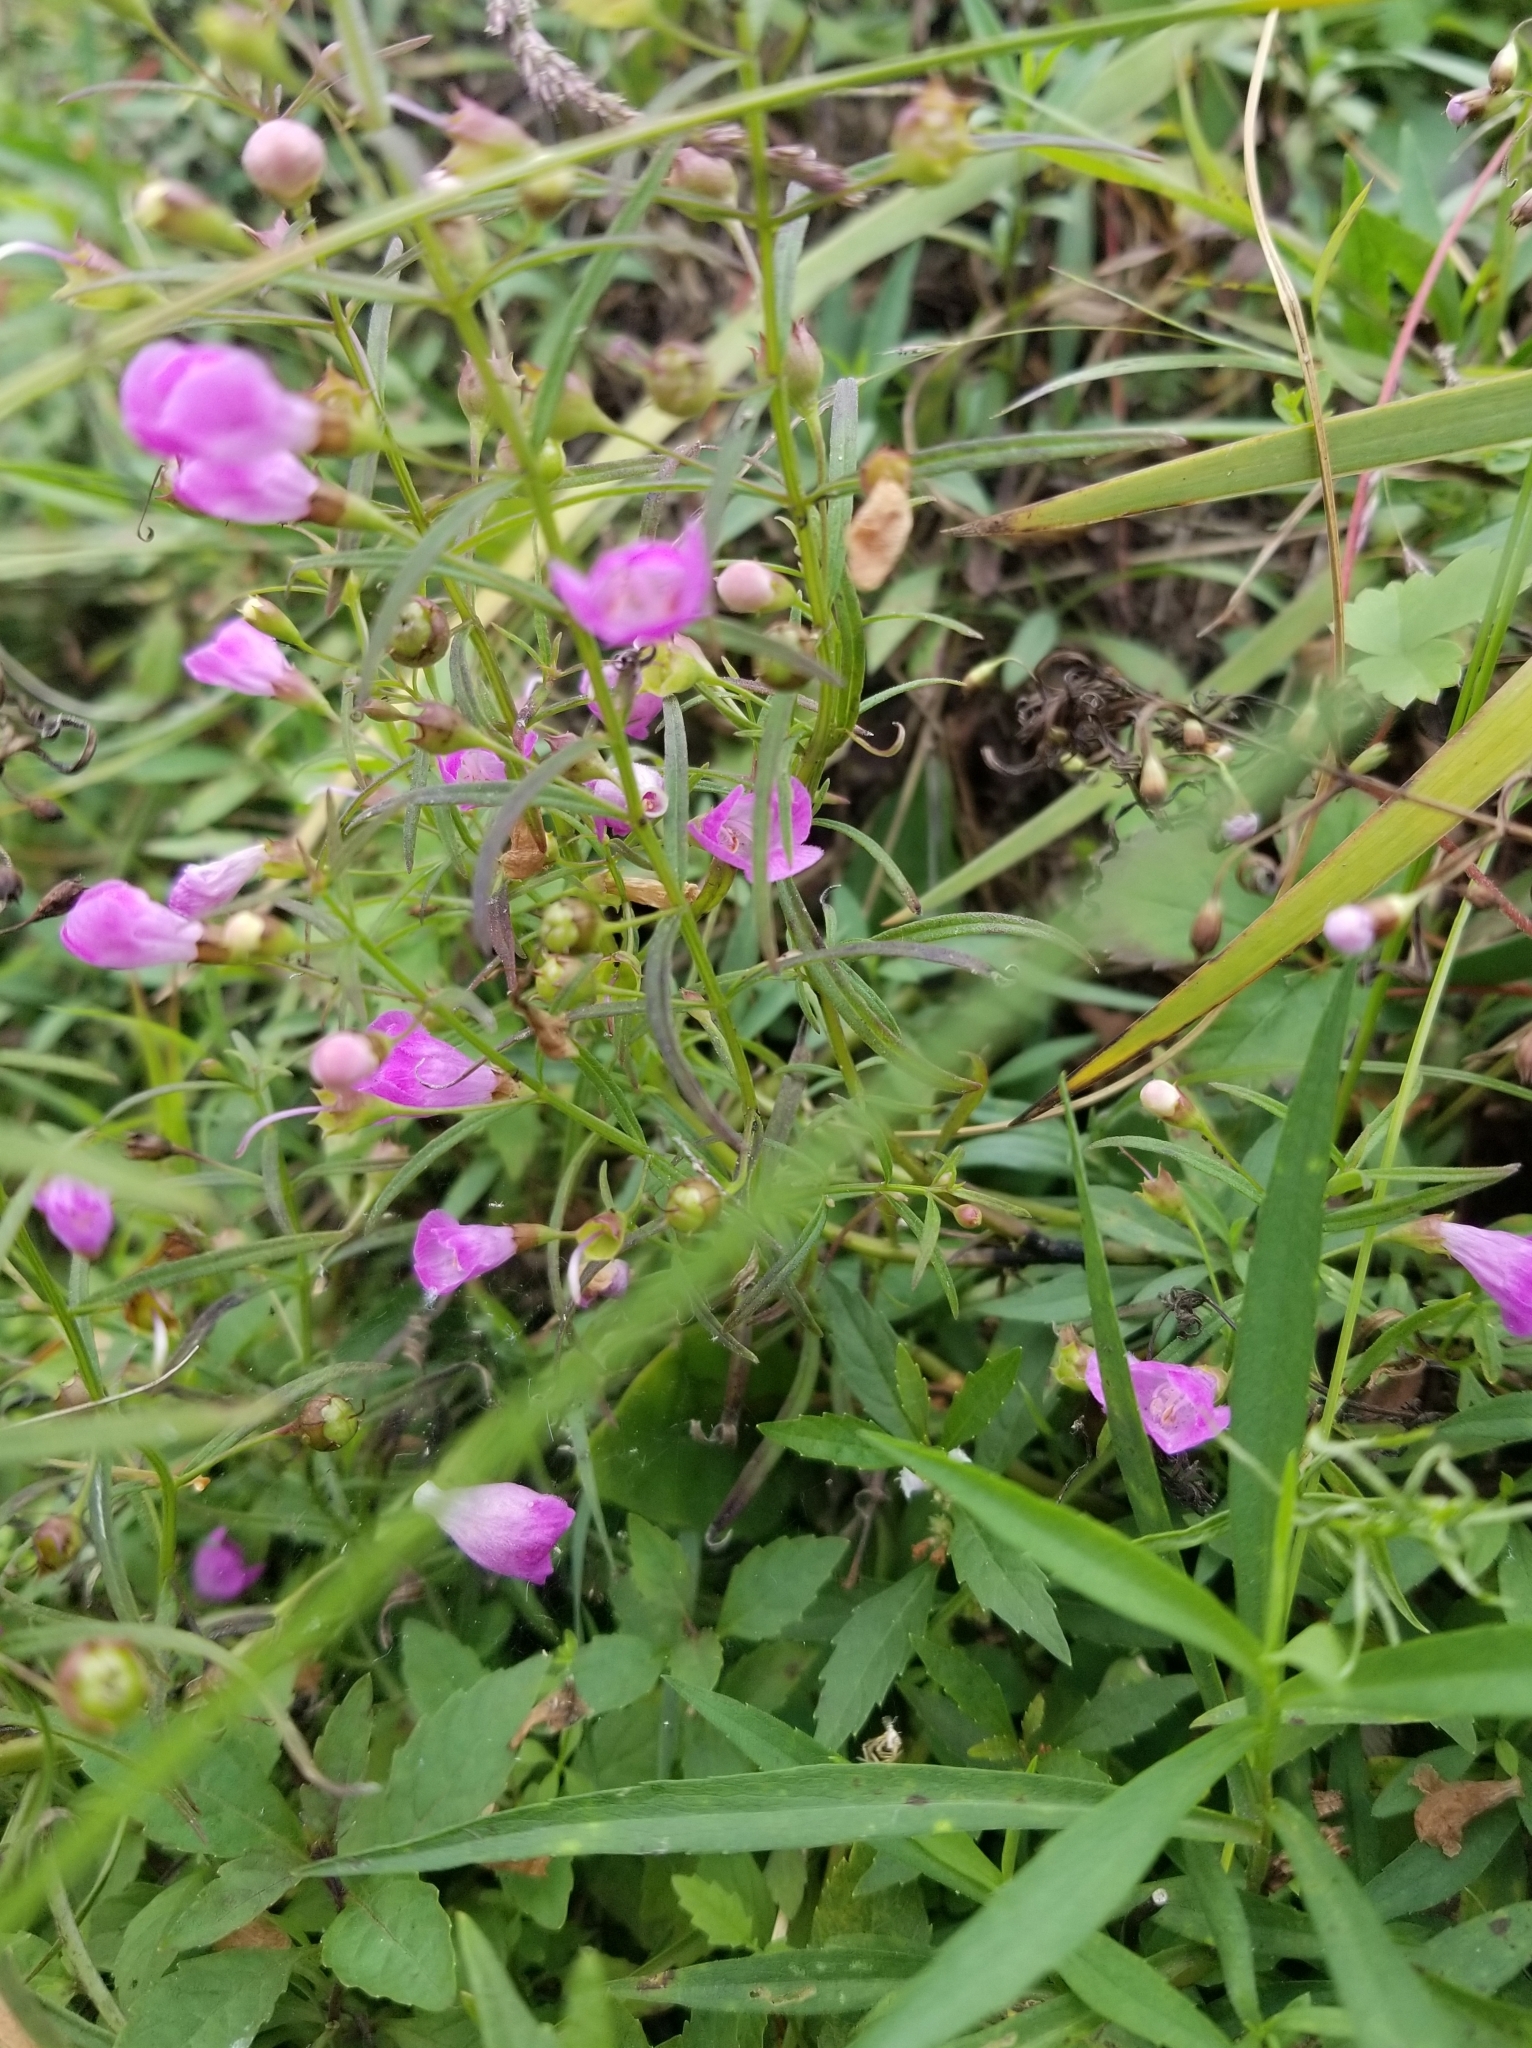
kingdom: Plantae
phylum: Tracheophyta
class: Magnoliopsida
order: Lamiales
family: Orobanchaceae
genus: Agalinis
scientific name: Agalinis tenuifolia
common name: Slender agalinis
